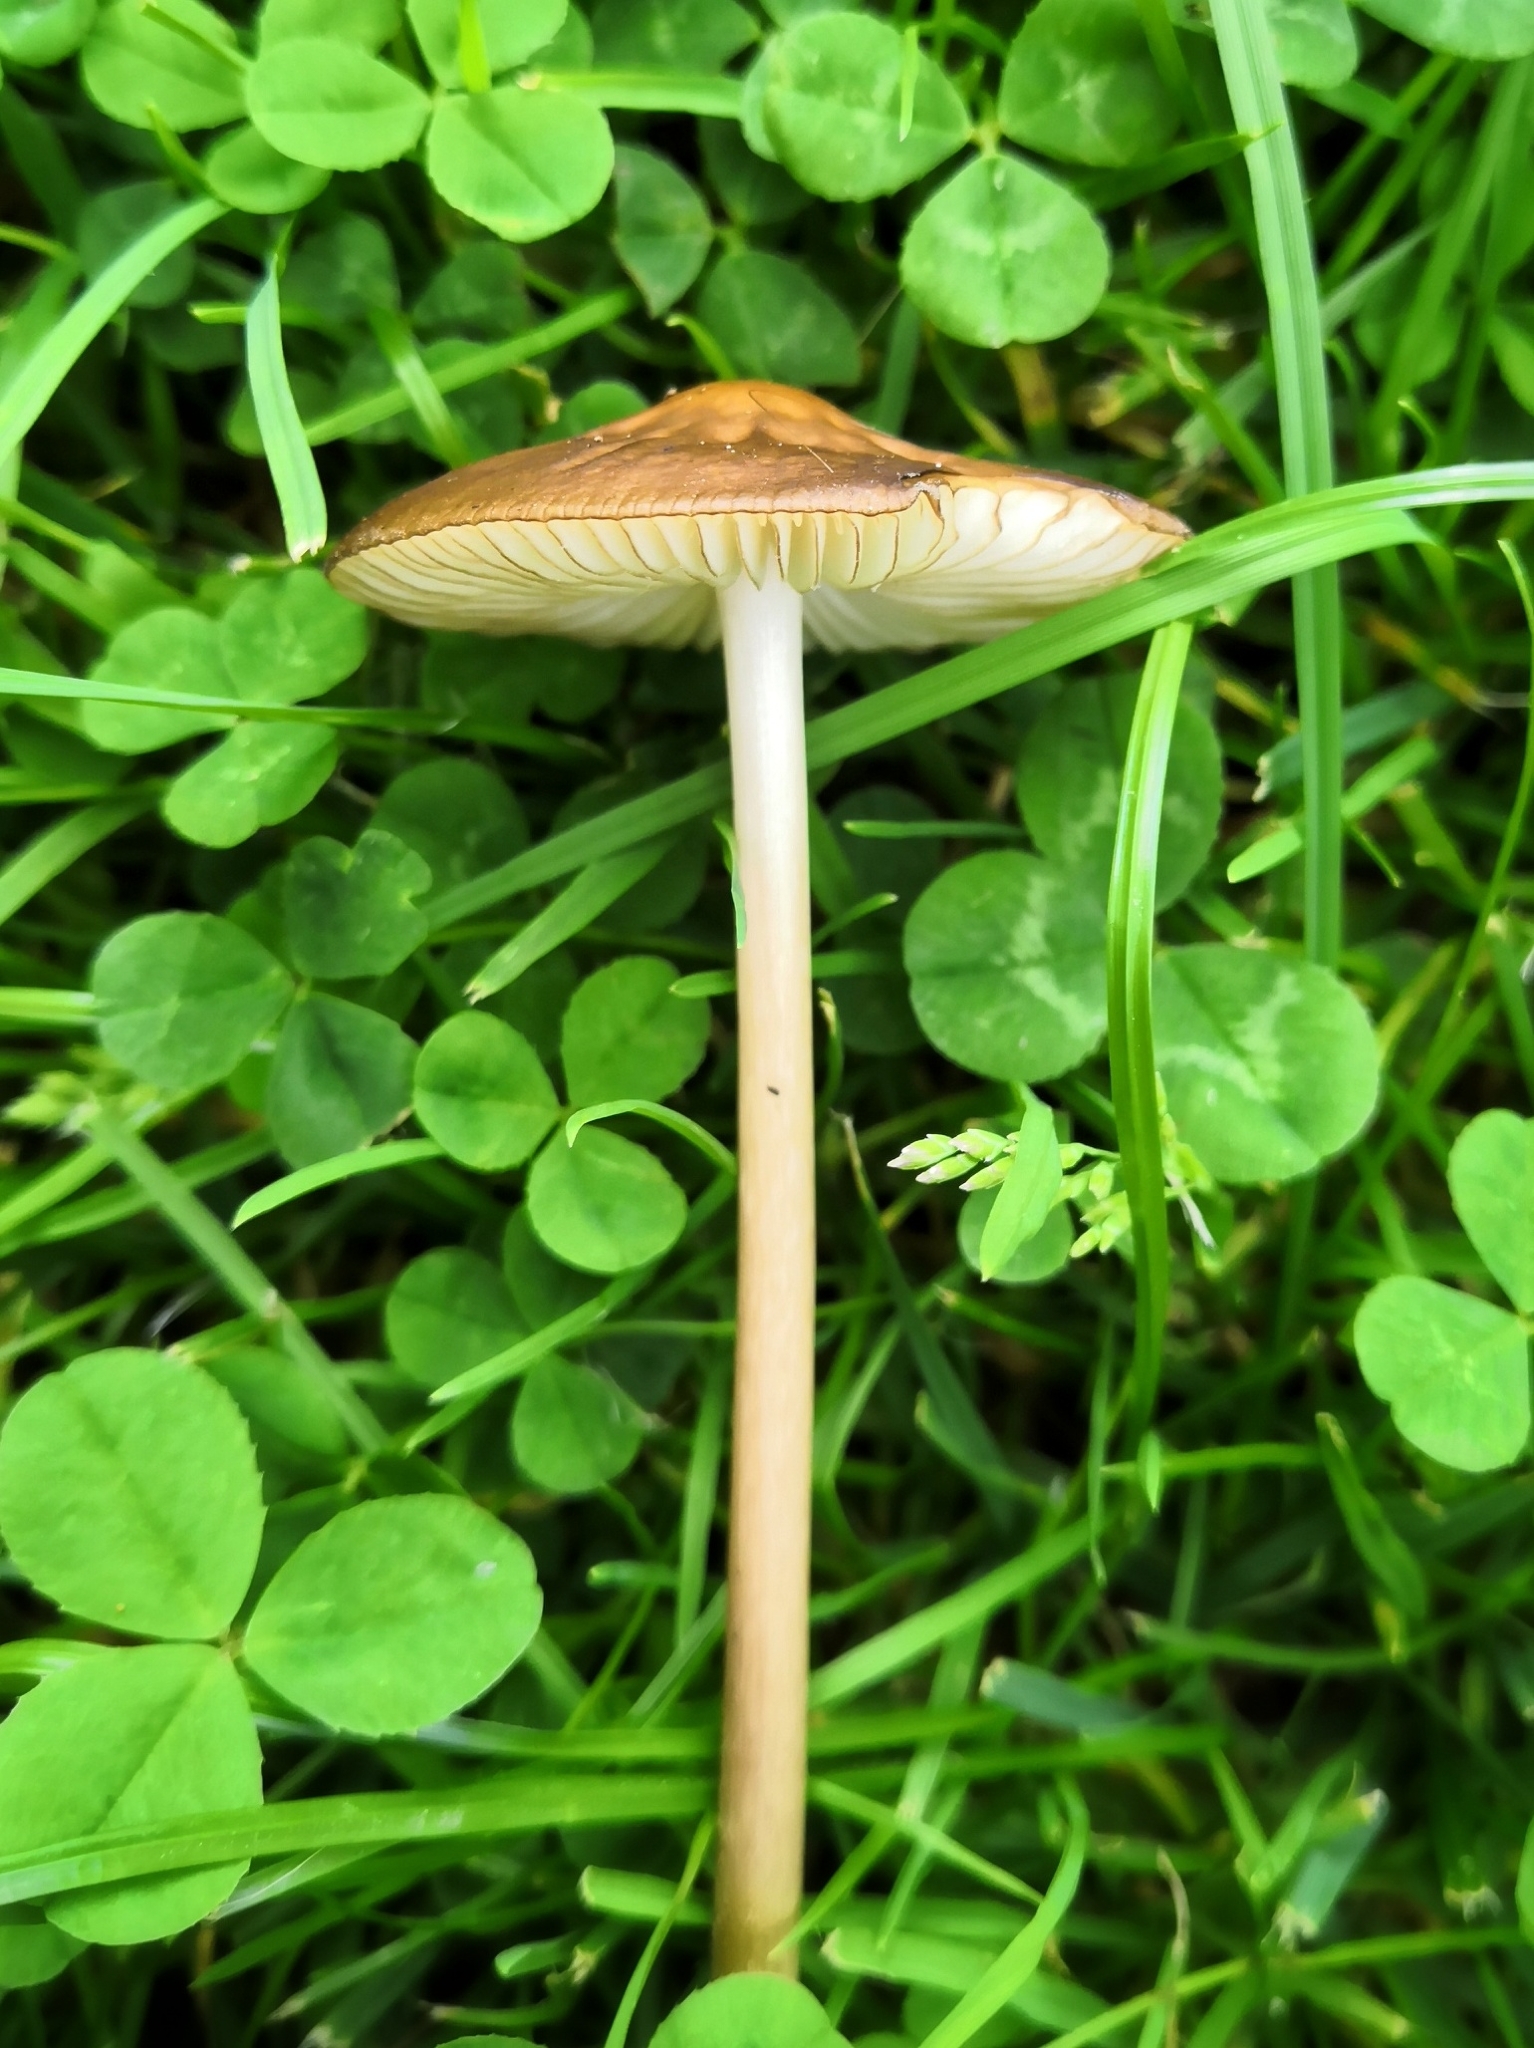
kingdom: Fungi
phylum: Basidiomycota
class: Agaricomycetes
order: Agaricales
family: Physalacriaceae
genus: Hymenopellis
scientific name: Hymenopellis radicata
